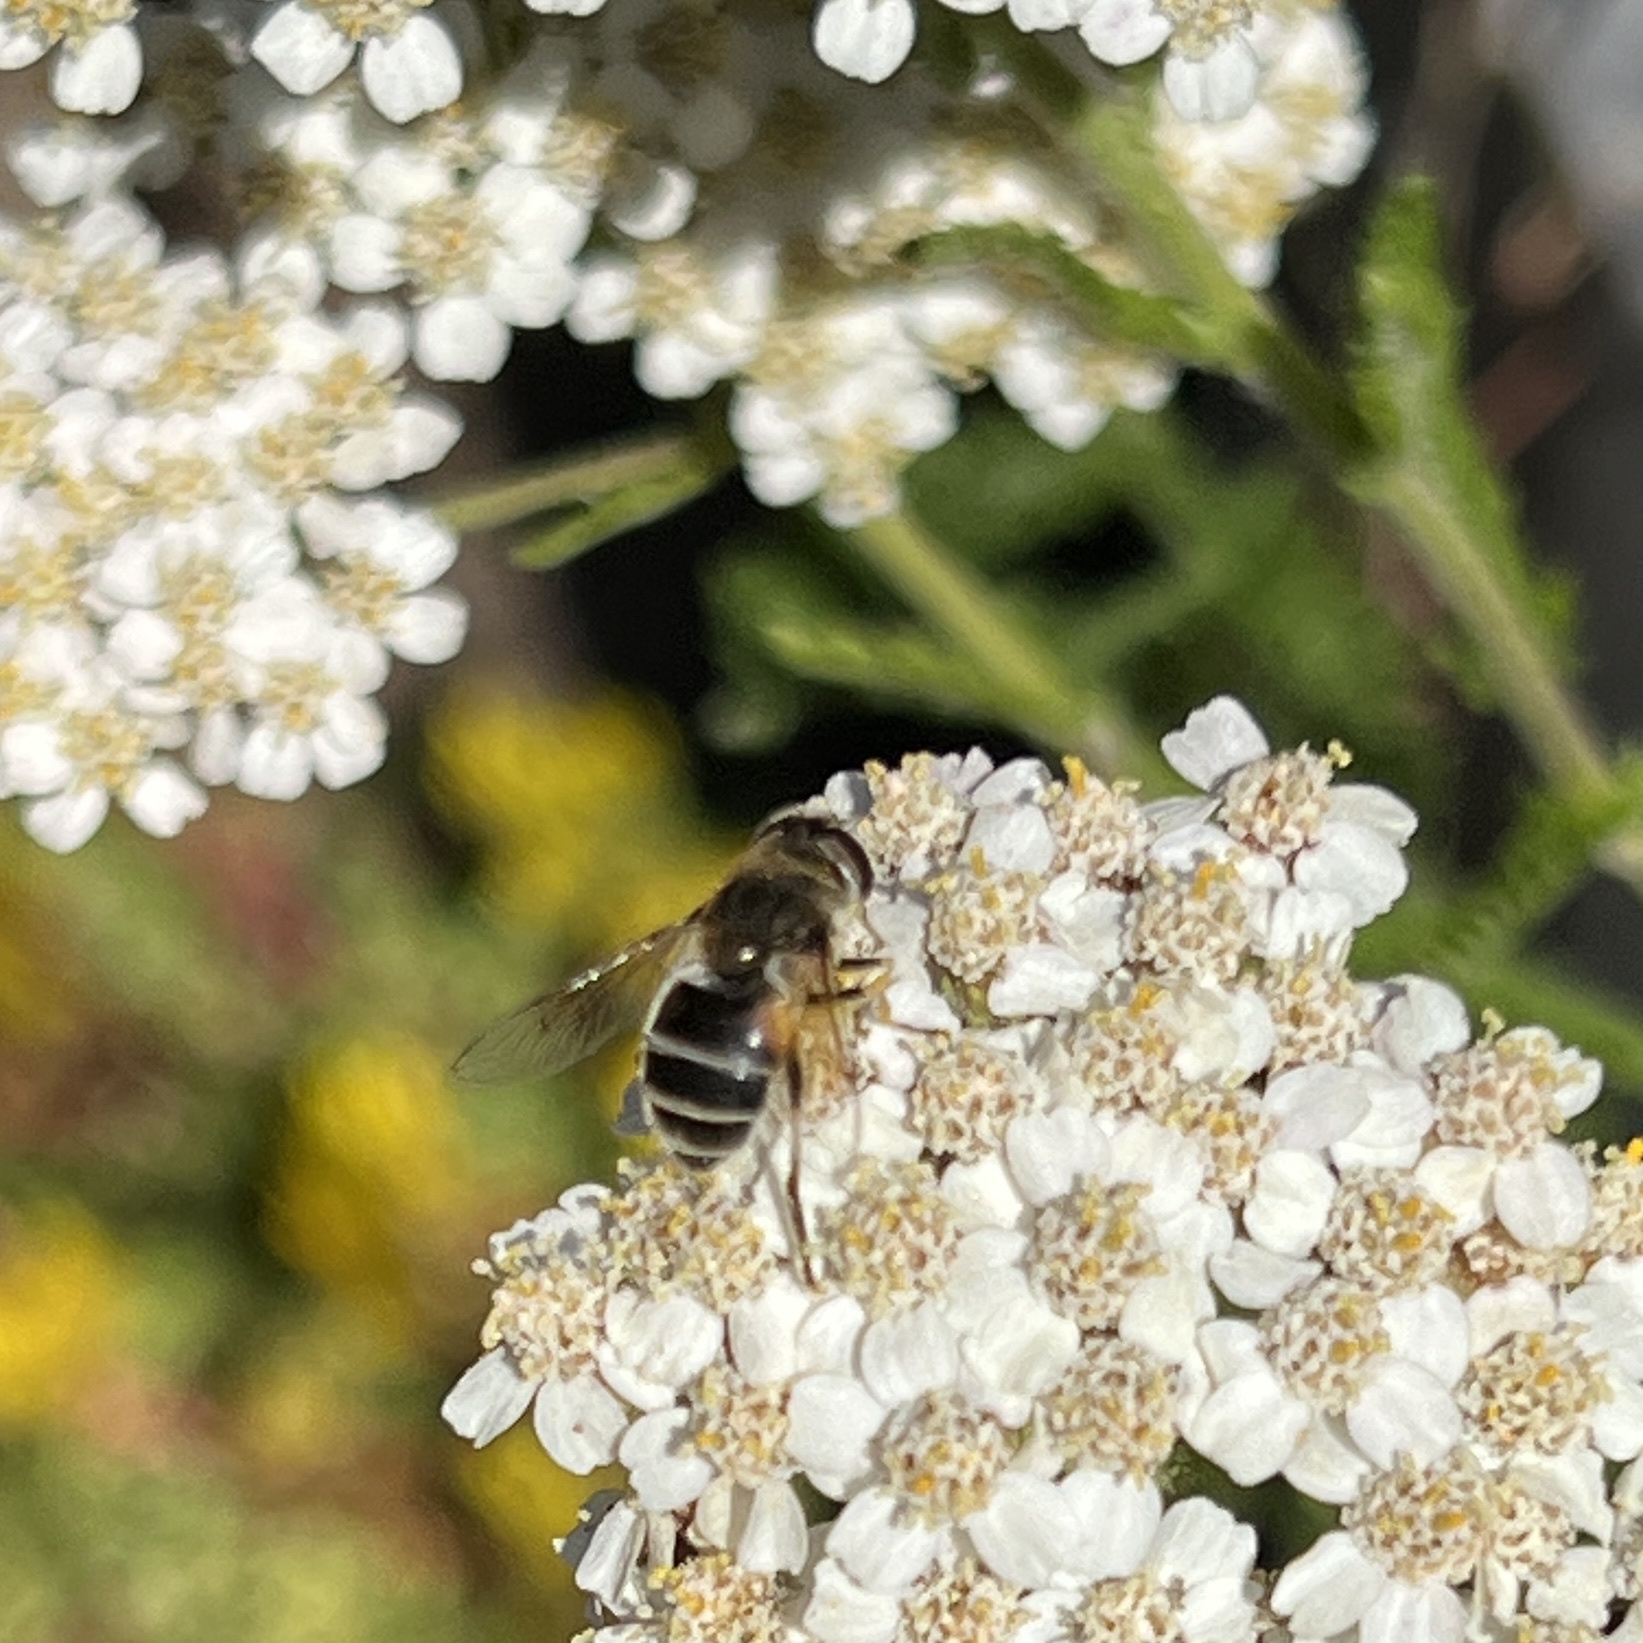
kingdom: Animalia
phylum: Arthropoda
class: Insecta
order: Diptera
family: Syrphidae
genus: Eristalis
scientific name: Eristalis arbustorum
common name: Hover fly
